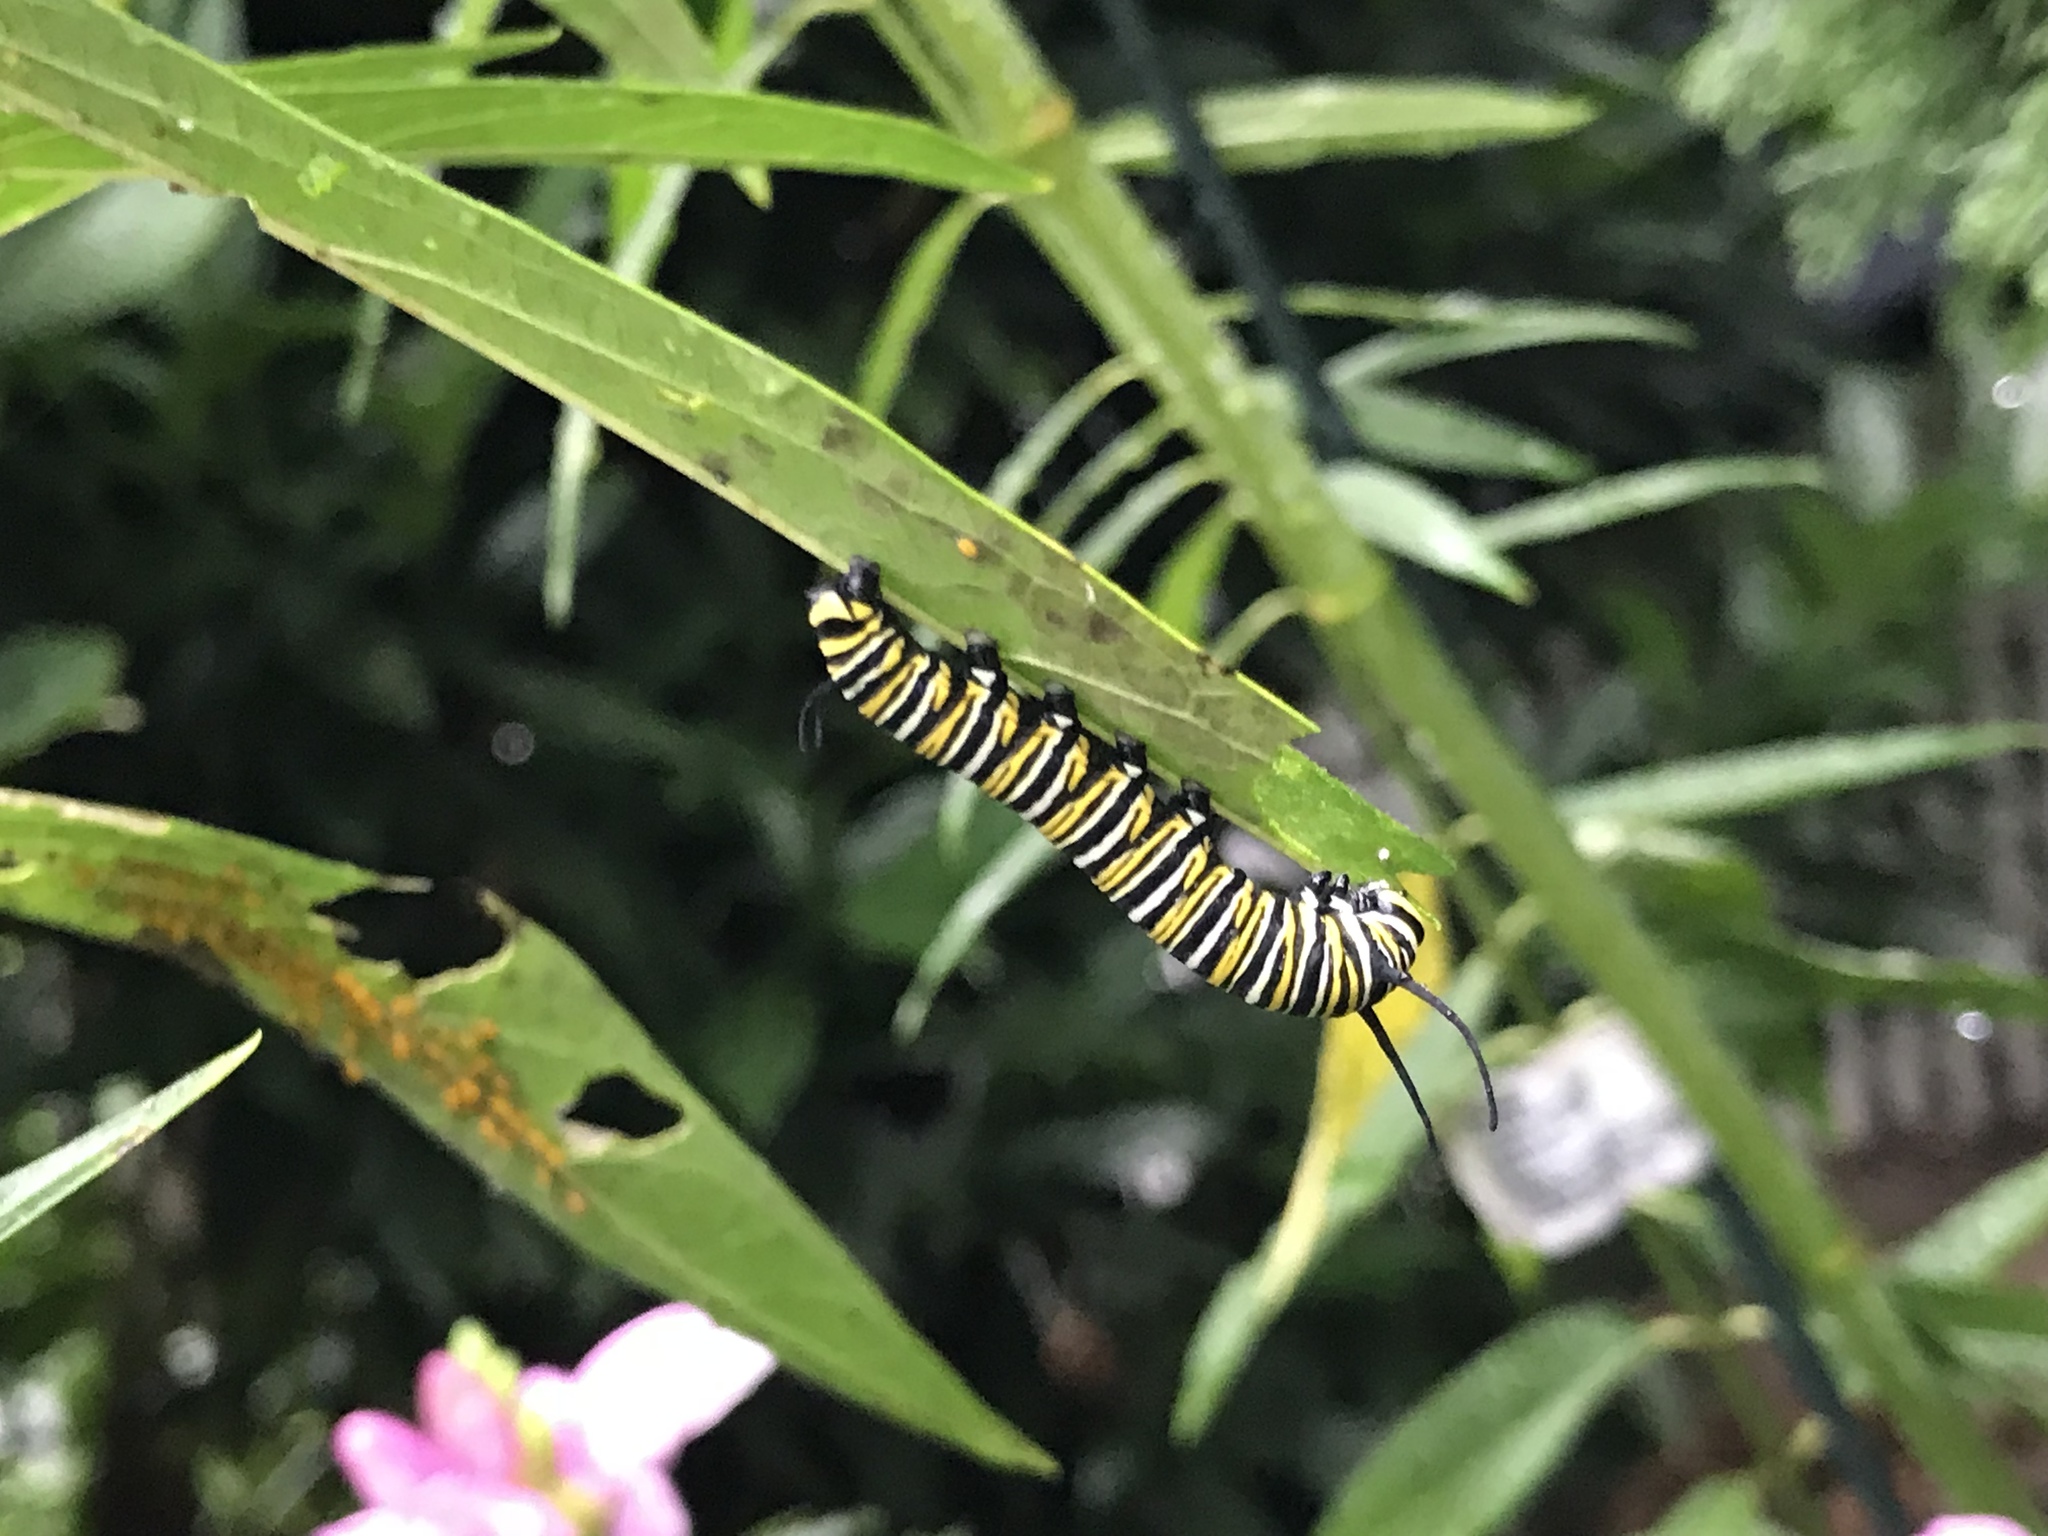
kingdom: Animalia
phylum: Arthropoda
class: Insecta
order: Lepidoptera
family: Nymphalidae
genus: Danaus
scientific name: Danaus plexippus
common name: Monarch
